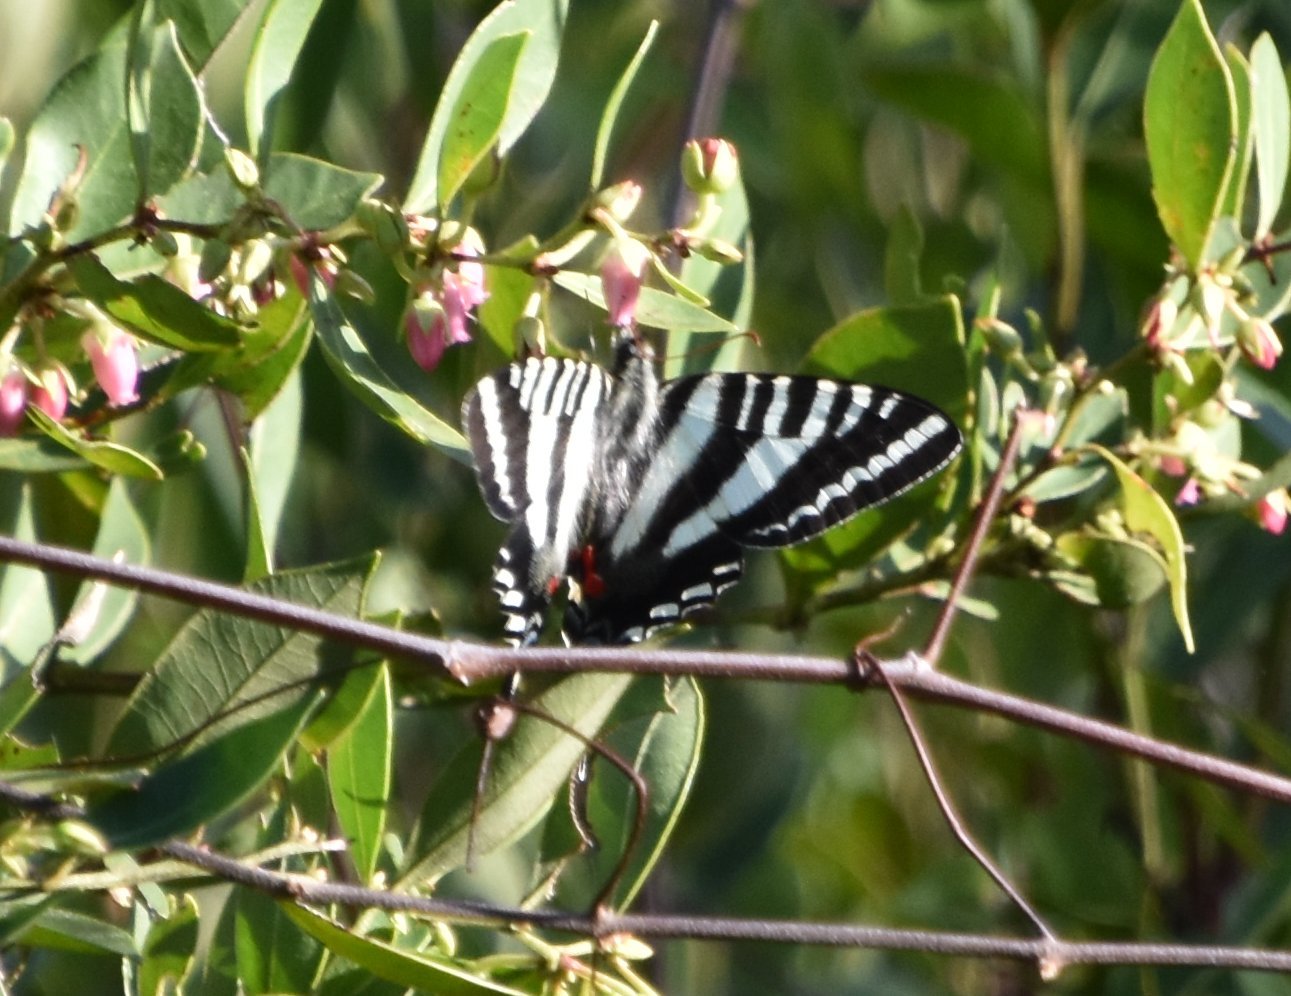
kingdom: Animalia
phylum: Arthropoda
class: Insecta
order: Lepidoptera
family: Papilionidae
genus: Protographium
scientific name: Protographium marcellus
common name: Zebra swallowtail
